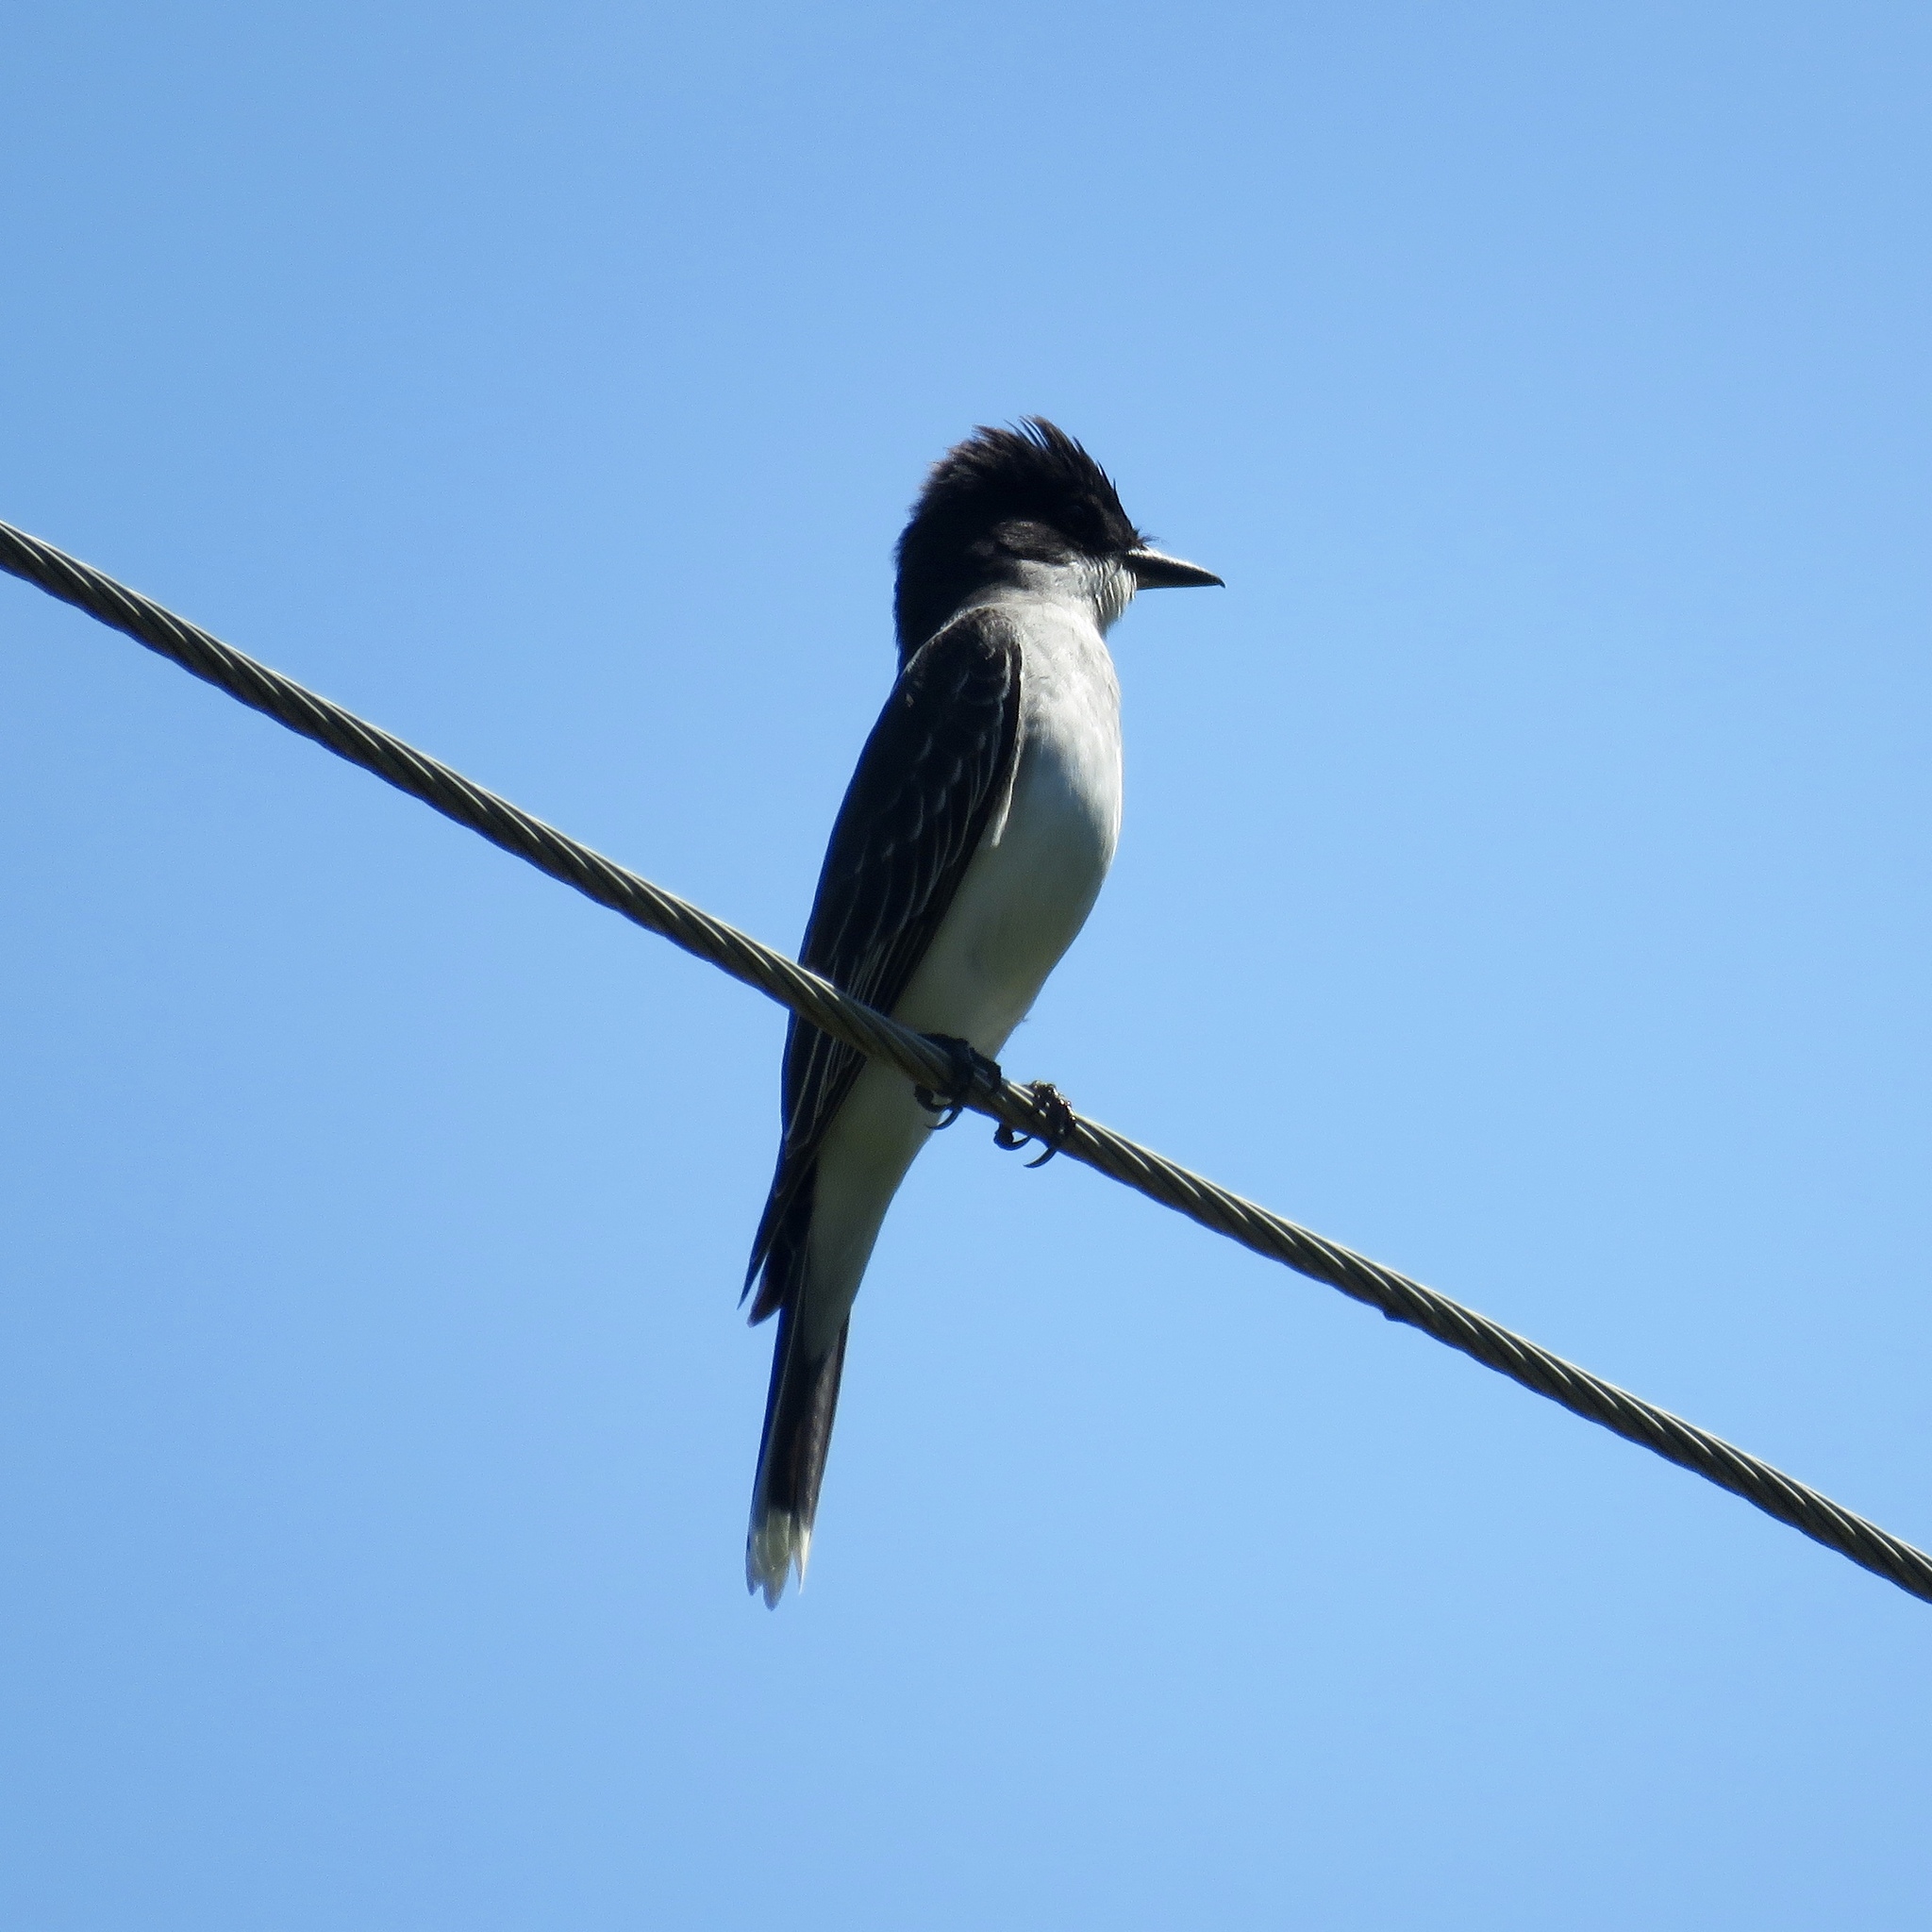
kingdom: Animalia
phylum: Chordata
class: Aves
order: Passeriformes
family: Tyrannidae
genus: Tyrannus
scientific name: Tyrannus tyrannus
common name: Eastern kingbird
